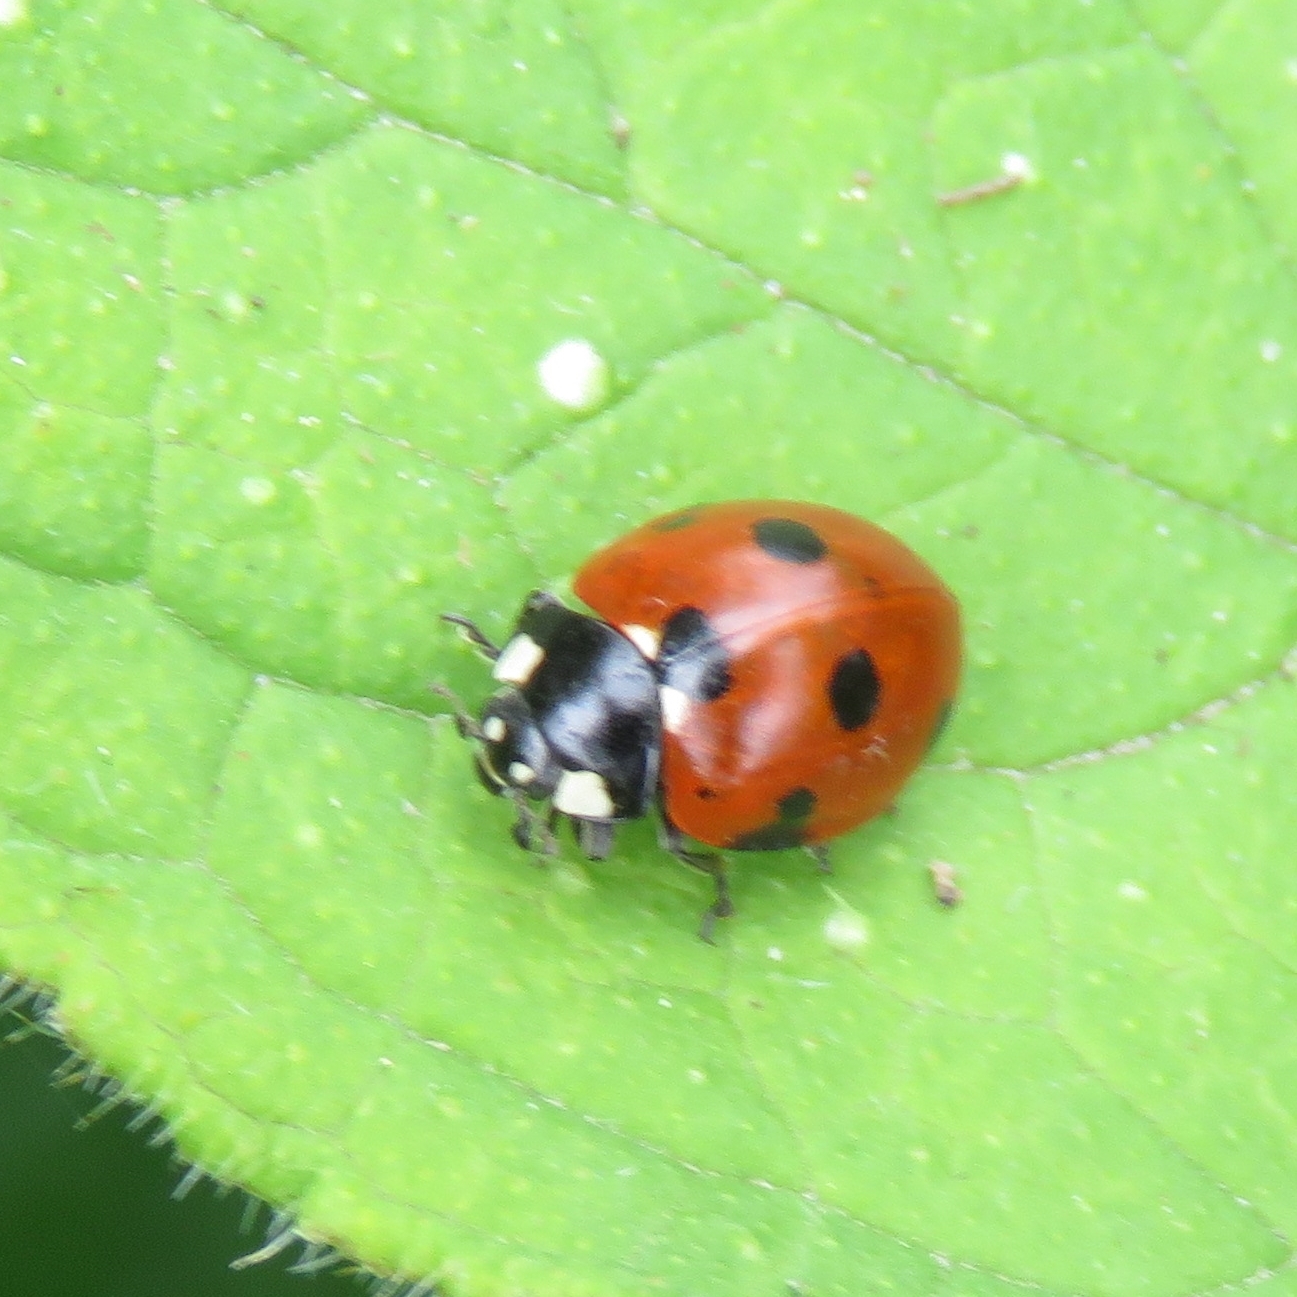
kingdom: Animalia
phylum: Arthropoda
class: Insecta
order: Coleoptera
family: Coccinellidae
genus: Coccinella
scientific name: Coccinella septempunctata
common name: Sevenspotted lady beetle
